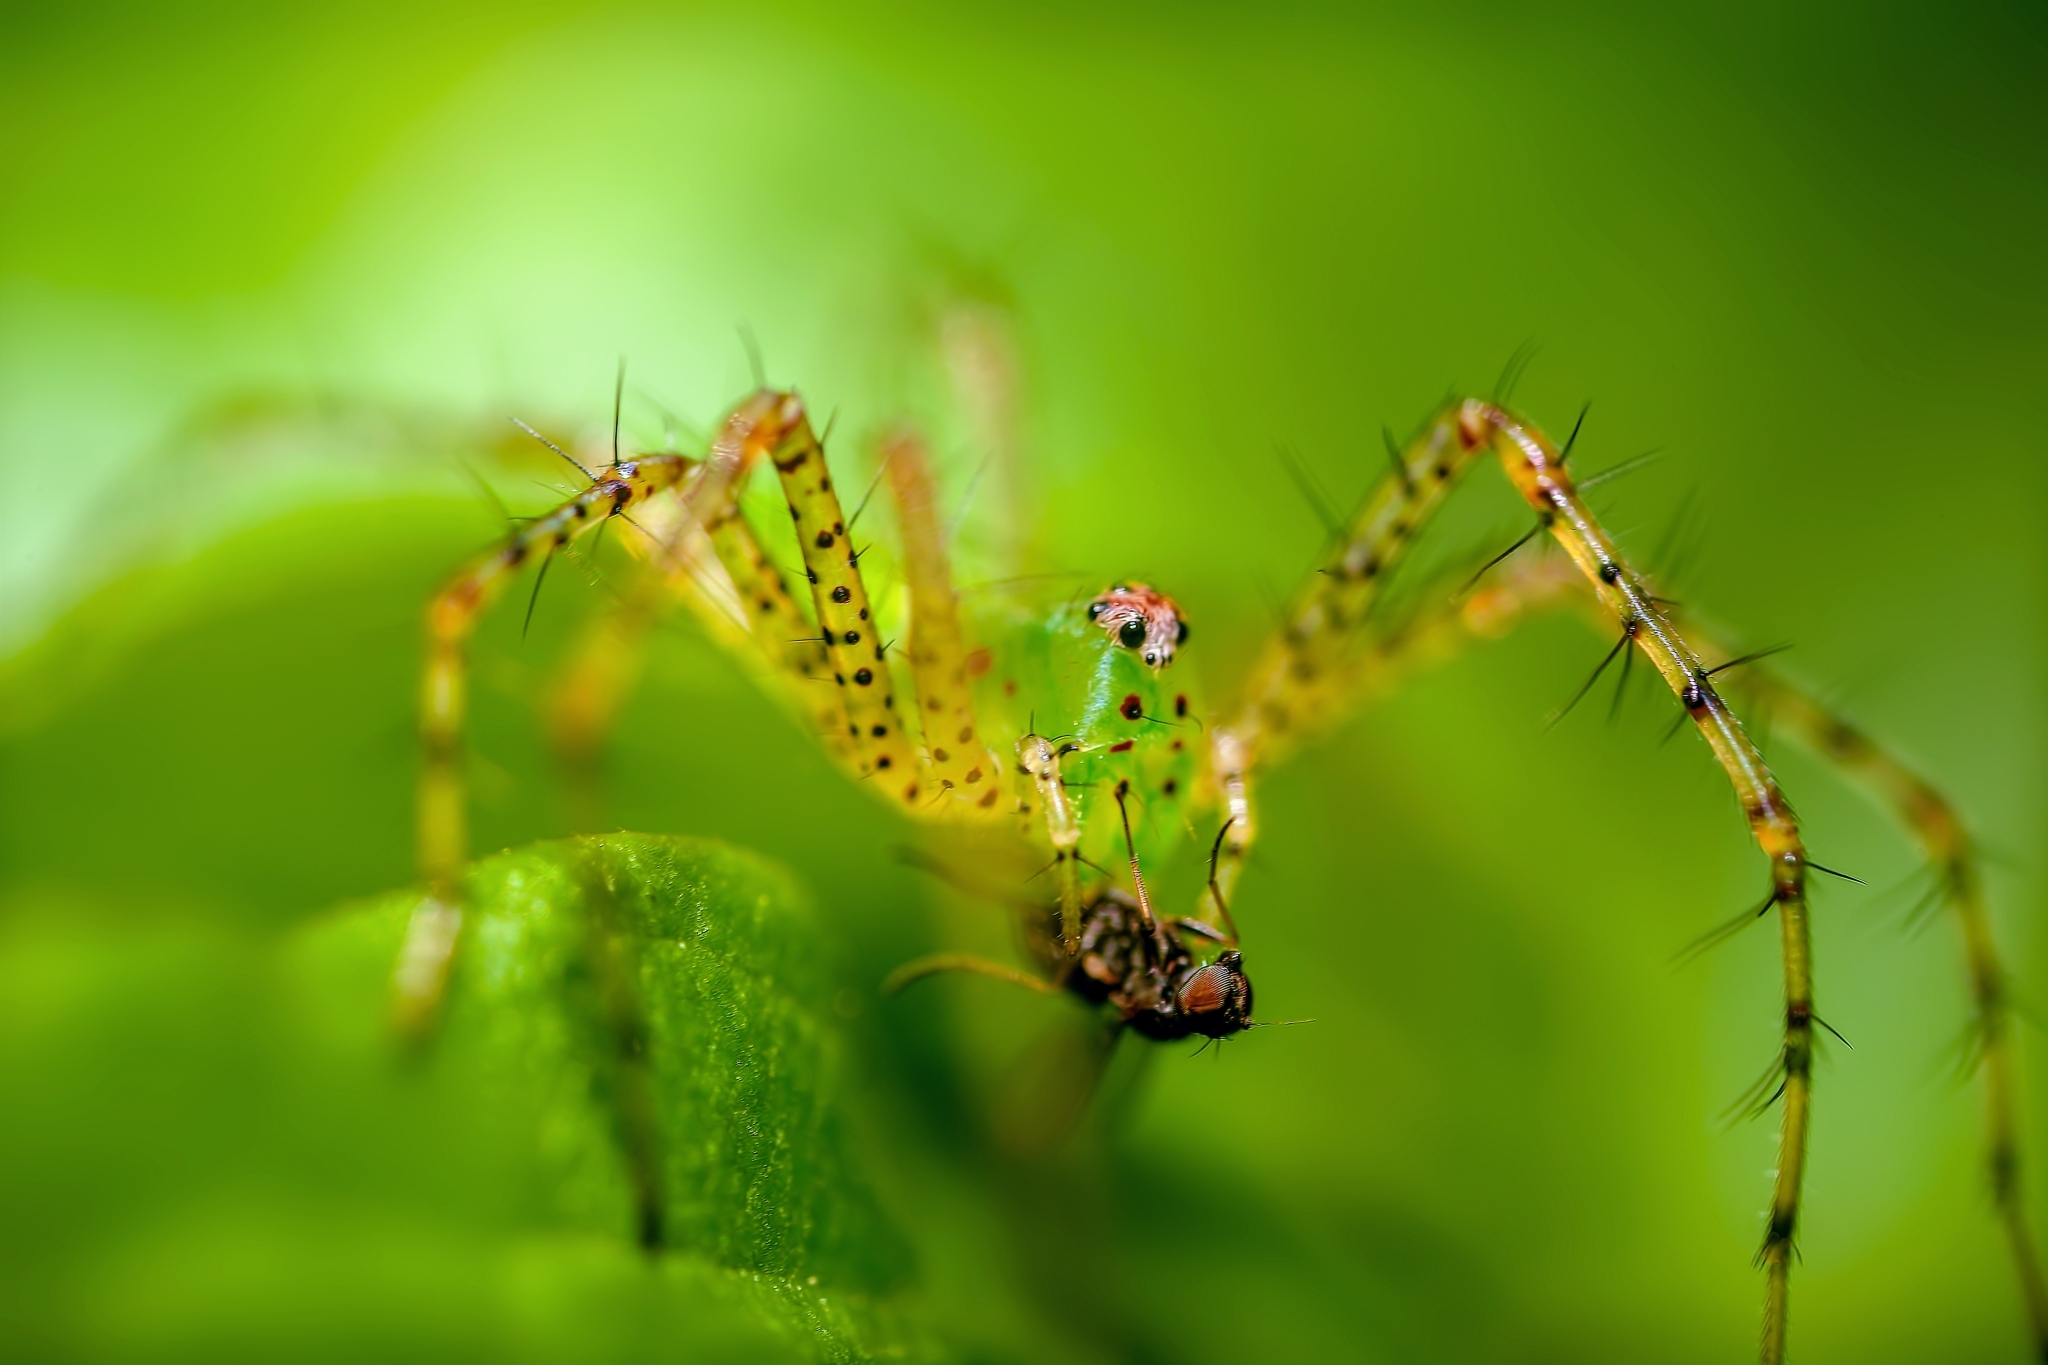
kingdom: Animalia
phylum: Arthropoda
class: Arachnida
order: Araneae
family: Oxyopidae
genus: Peucetia
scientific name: Peucetia viridans
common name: Lynx spiders
